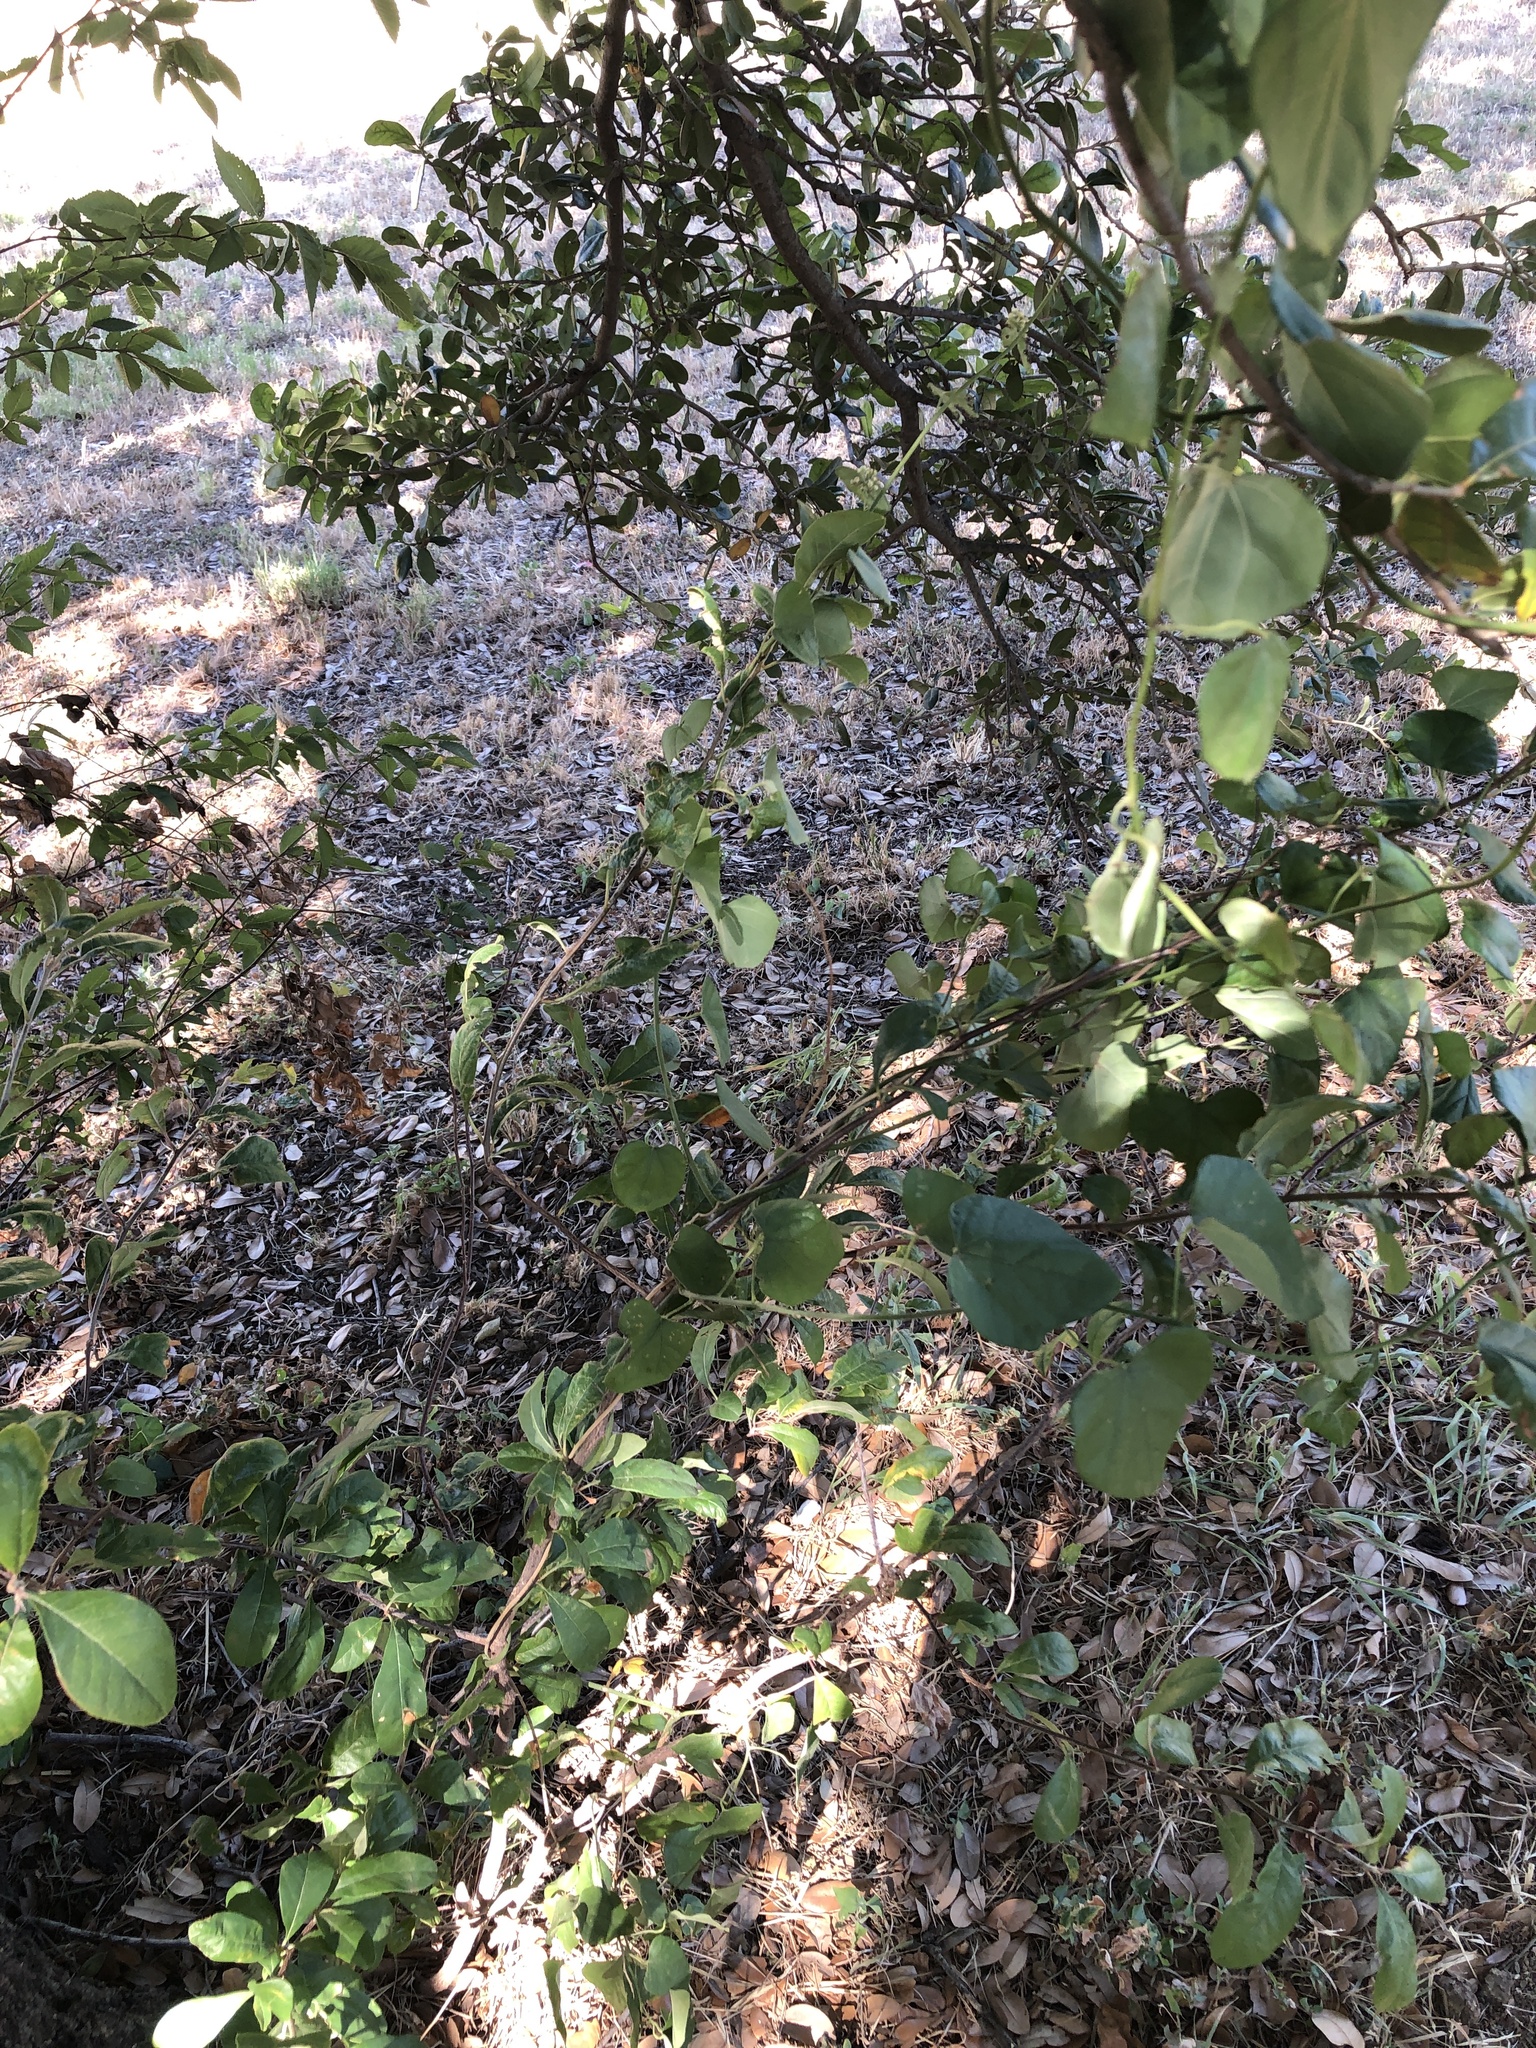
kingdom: Plantae
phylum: Tracheophyta
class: Magnoliopsida
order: Ranunculales
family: Menispermaceae
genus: Cocculus
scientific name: Cocculus carolinus
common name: Carolina moonseed
